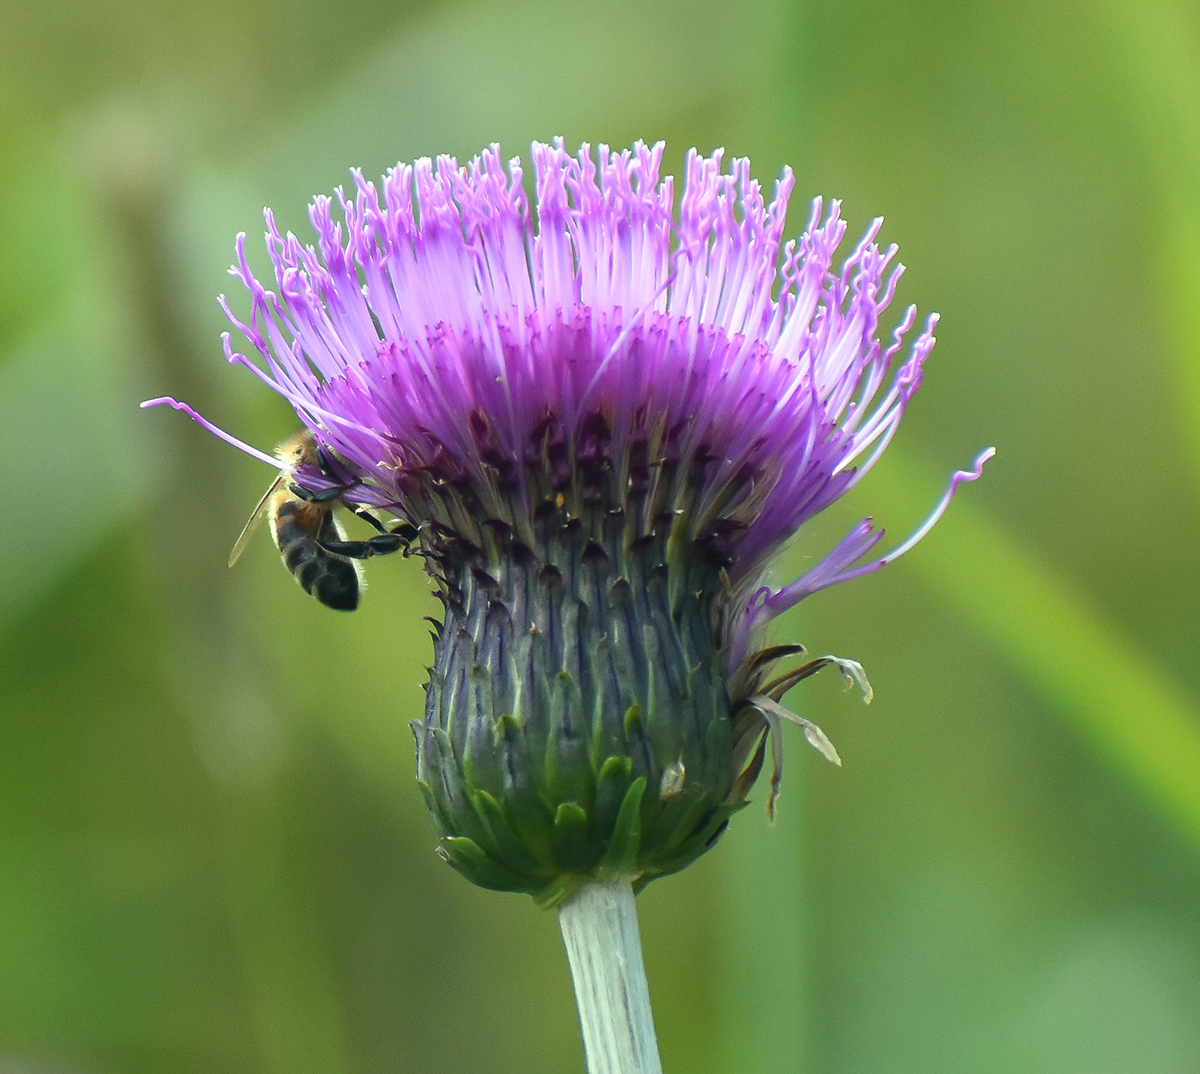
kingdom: Plantae
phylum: Tracheophyta
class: Magnoliopsida
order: Asterales
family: Asteraceae
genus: Cirsium
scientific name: Cirsium heterophyllum
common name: Melancholy thistle
